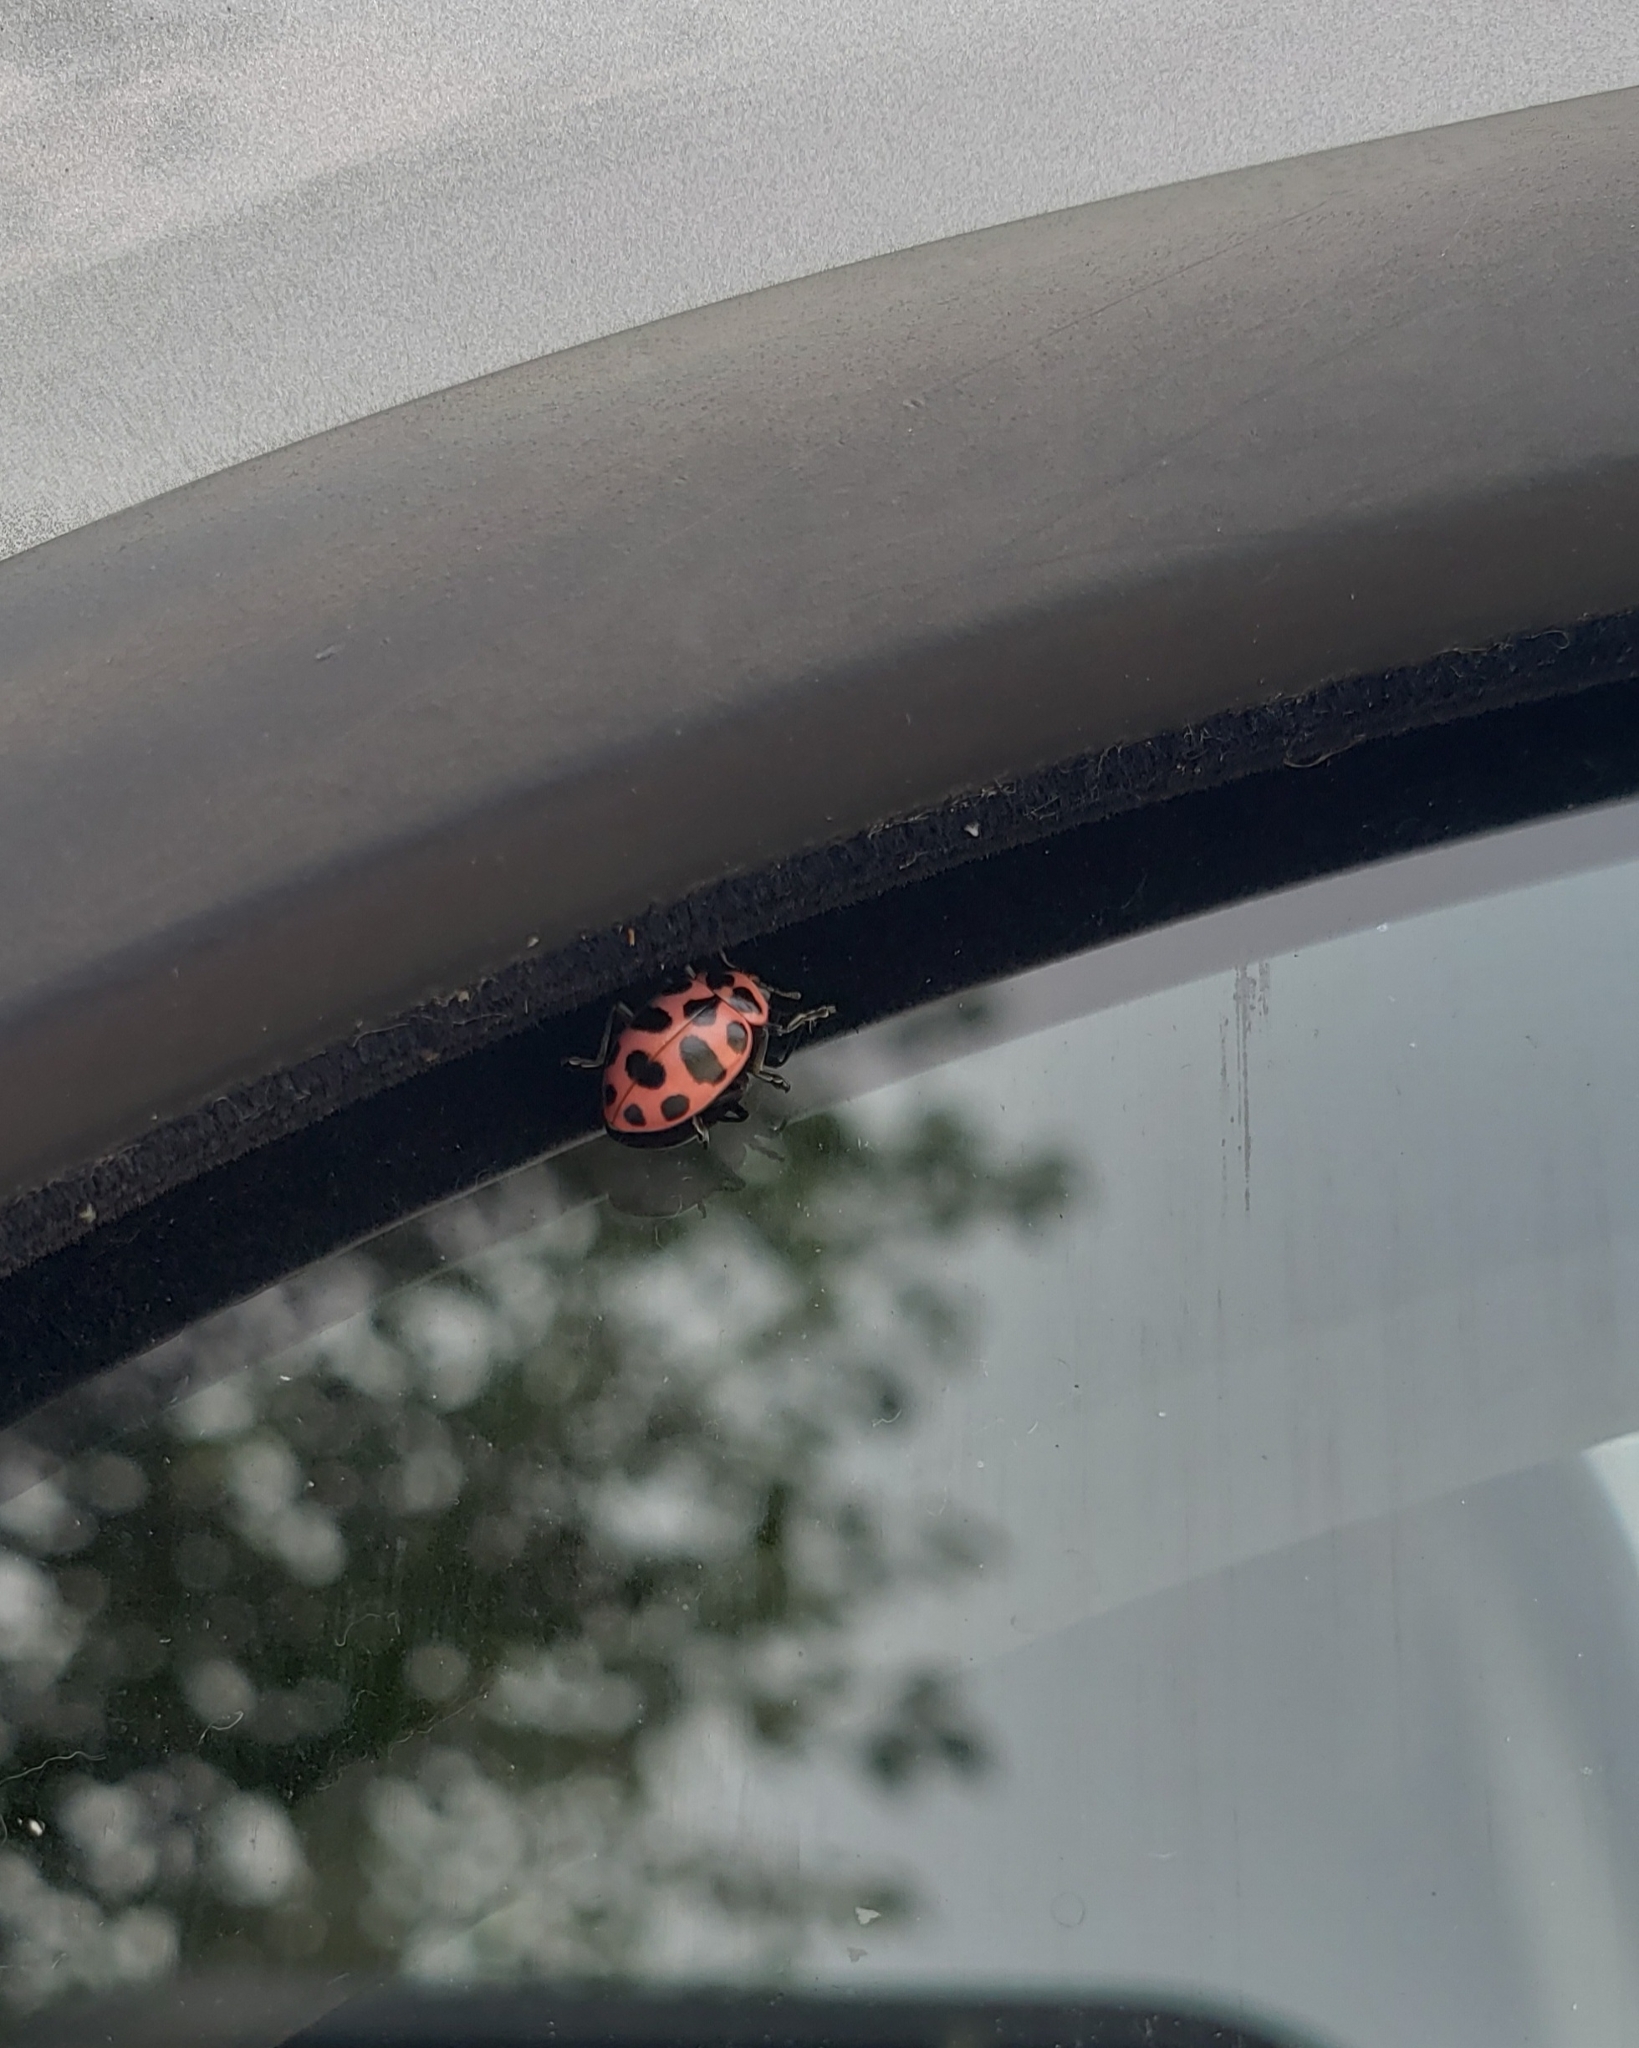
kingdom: Animalia
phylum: Arthropoda
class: Insecta
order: Coleoptera
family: Coccinellidae
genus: Coleomegilla
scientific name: Coleomegilla maculata
